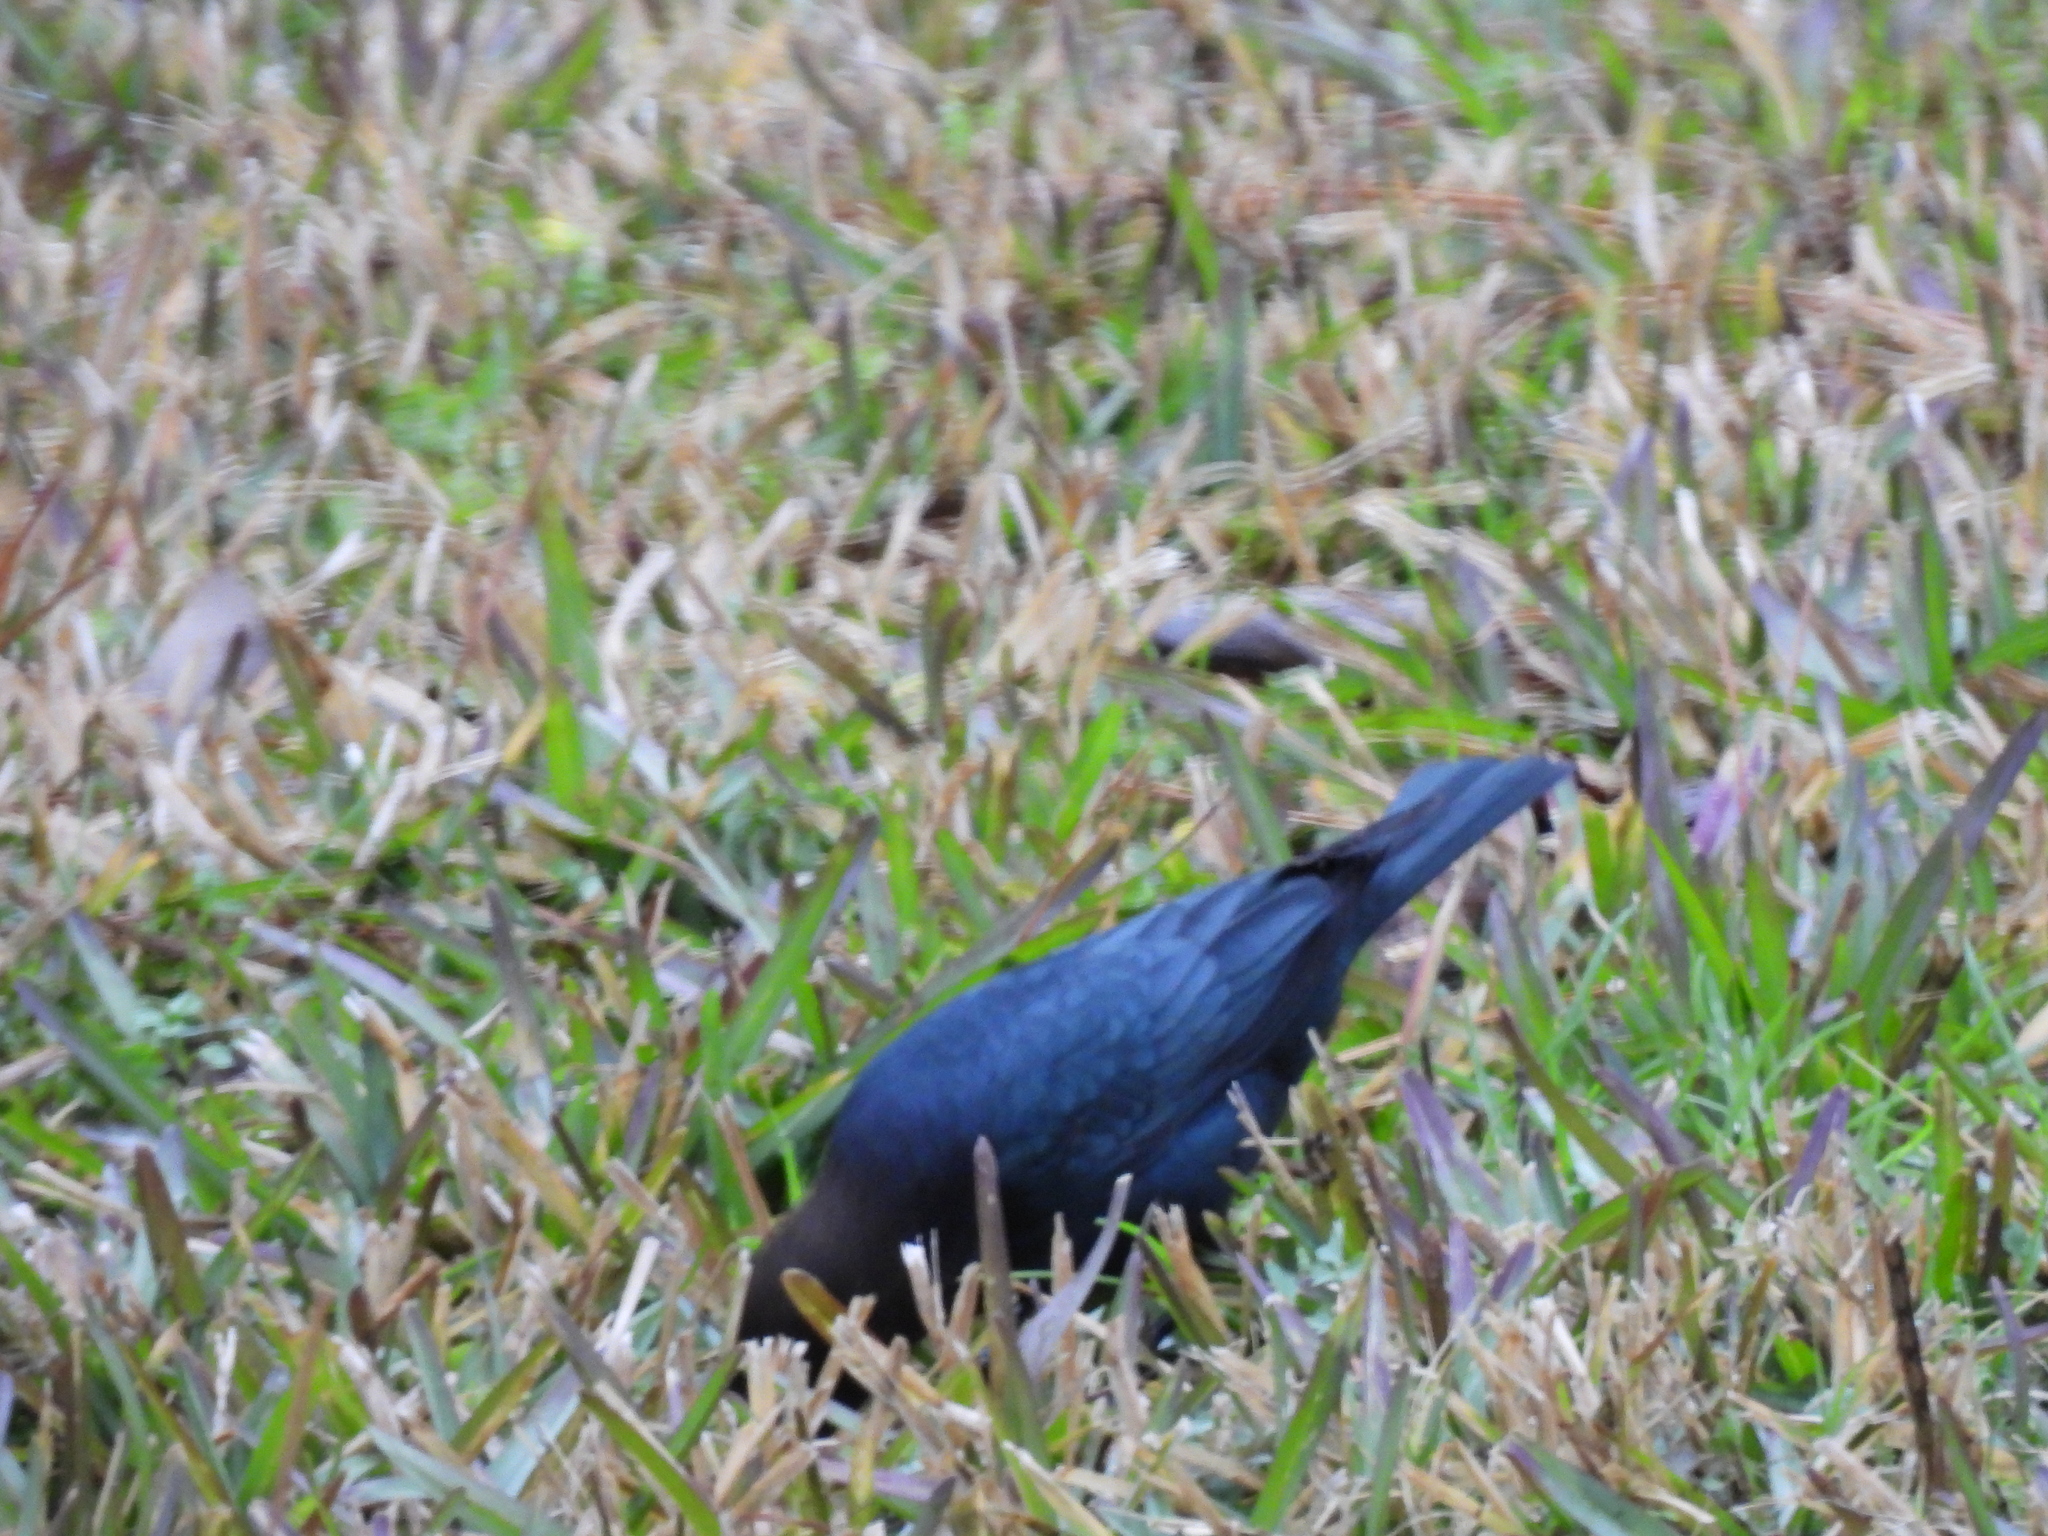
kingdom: Animalia
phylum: Chordata
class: Aves
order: Passeriformes
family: Icteridae
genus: Molothrus
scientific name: Molothrus ater
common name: Brown-headed cowbird
